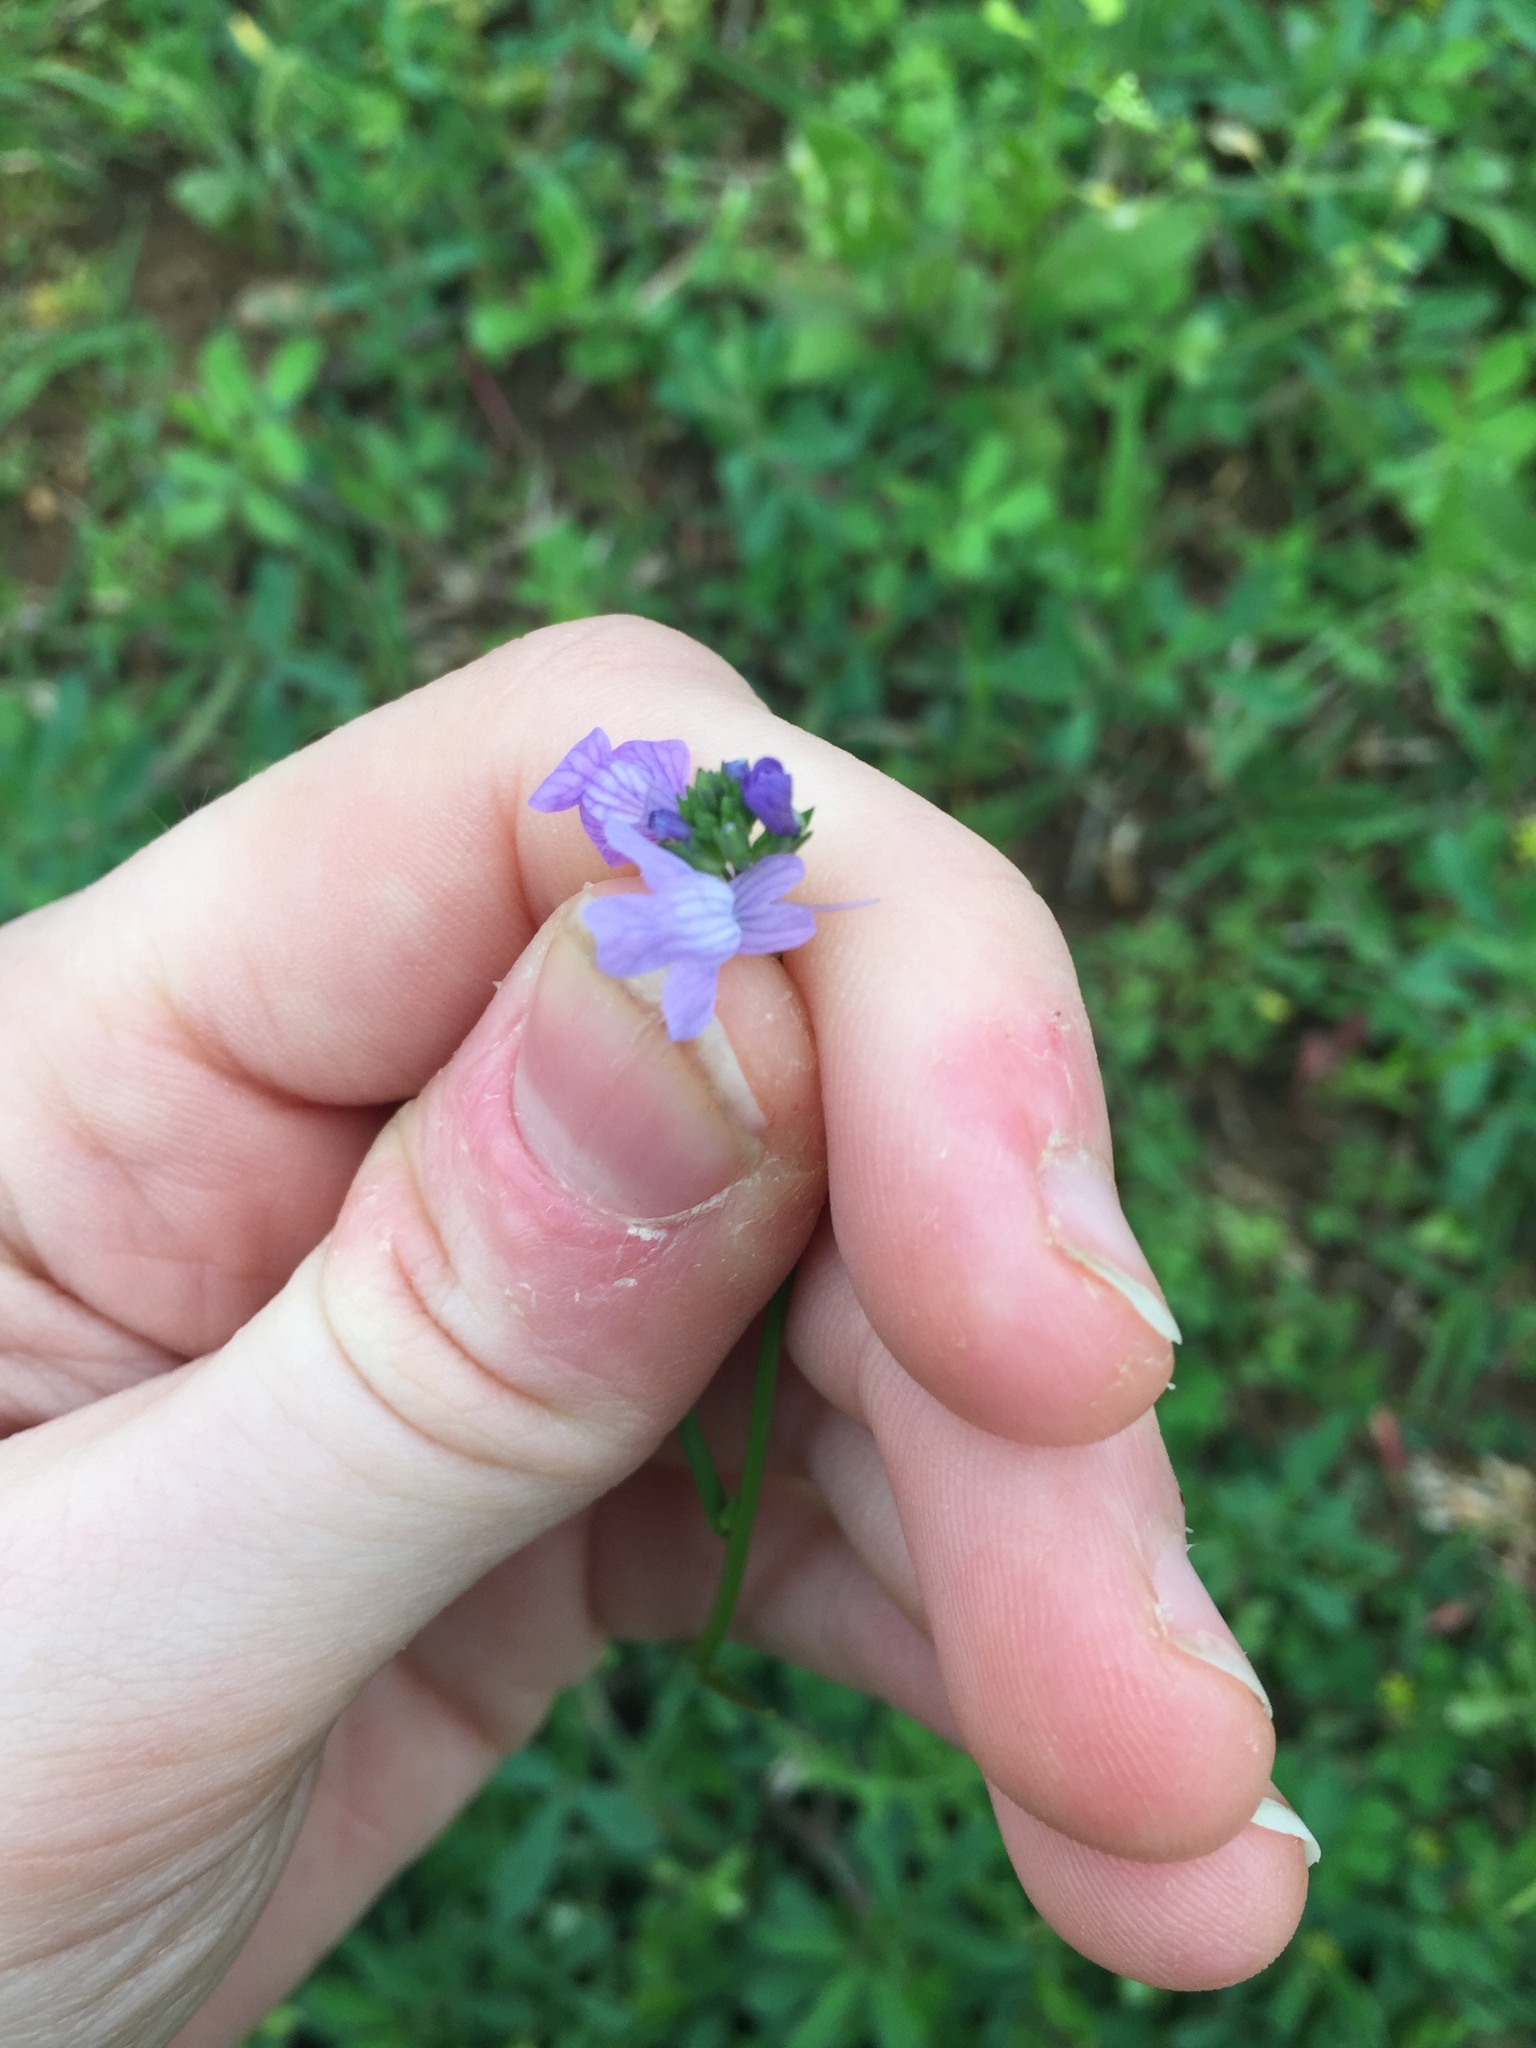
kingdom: Plantae
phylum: Tracheophyta
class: Magnoliopsida
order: Lamiales
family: Plantaginaceae
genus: Nuttallanthus
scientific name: Nuttallanthus texanus
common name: Texas toadflax
